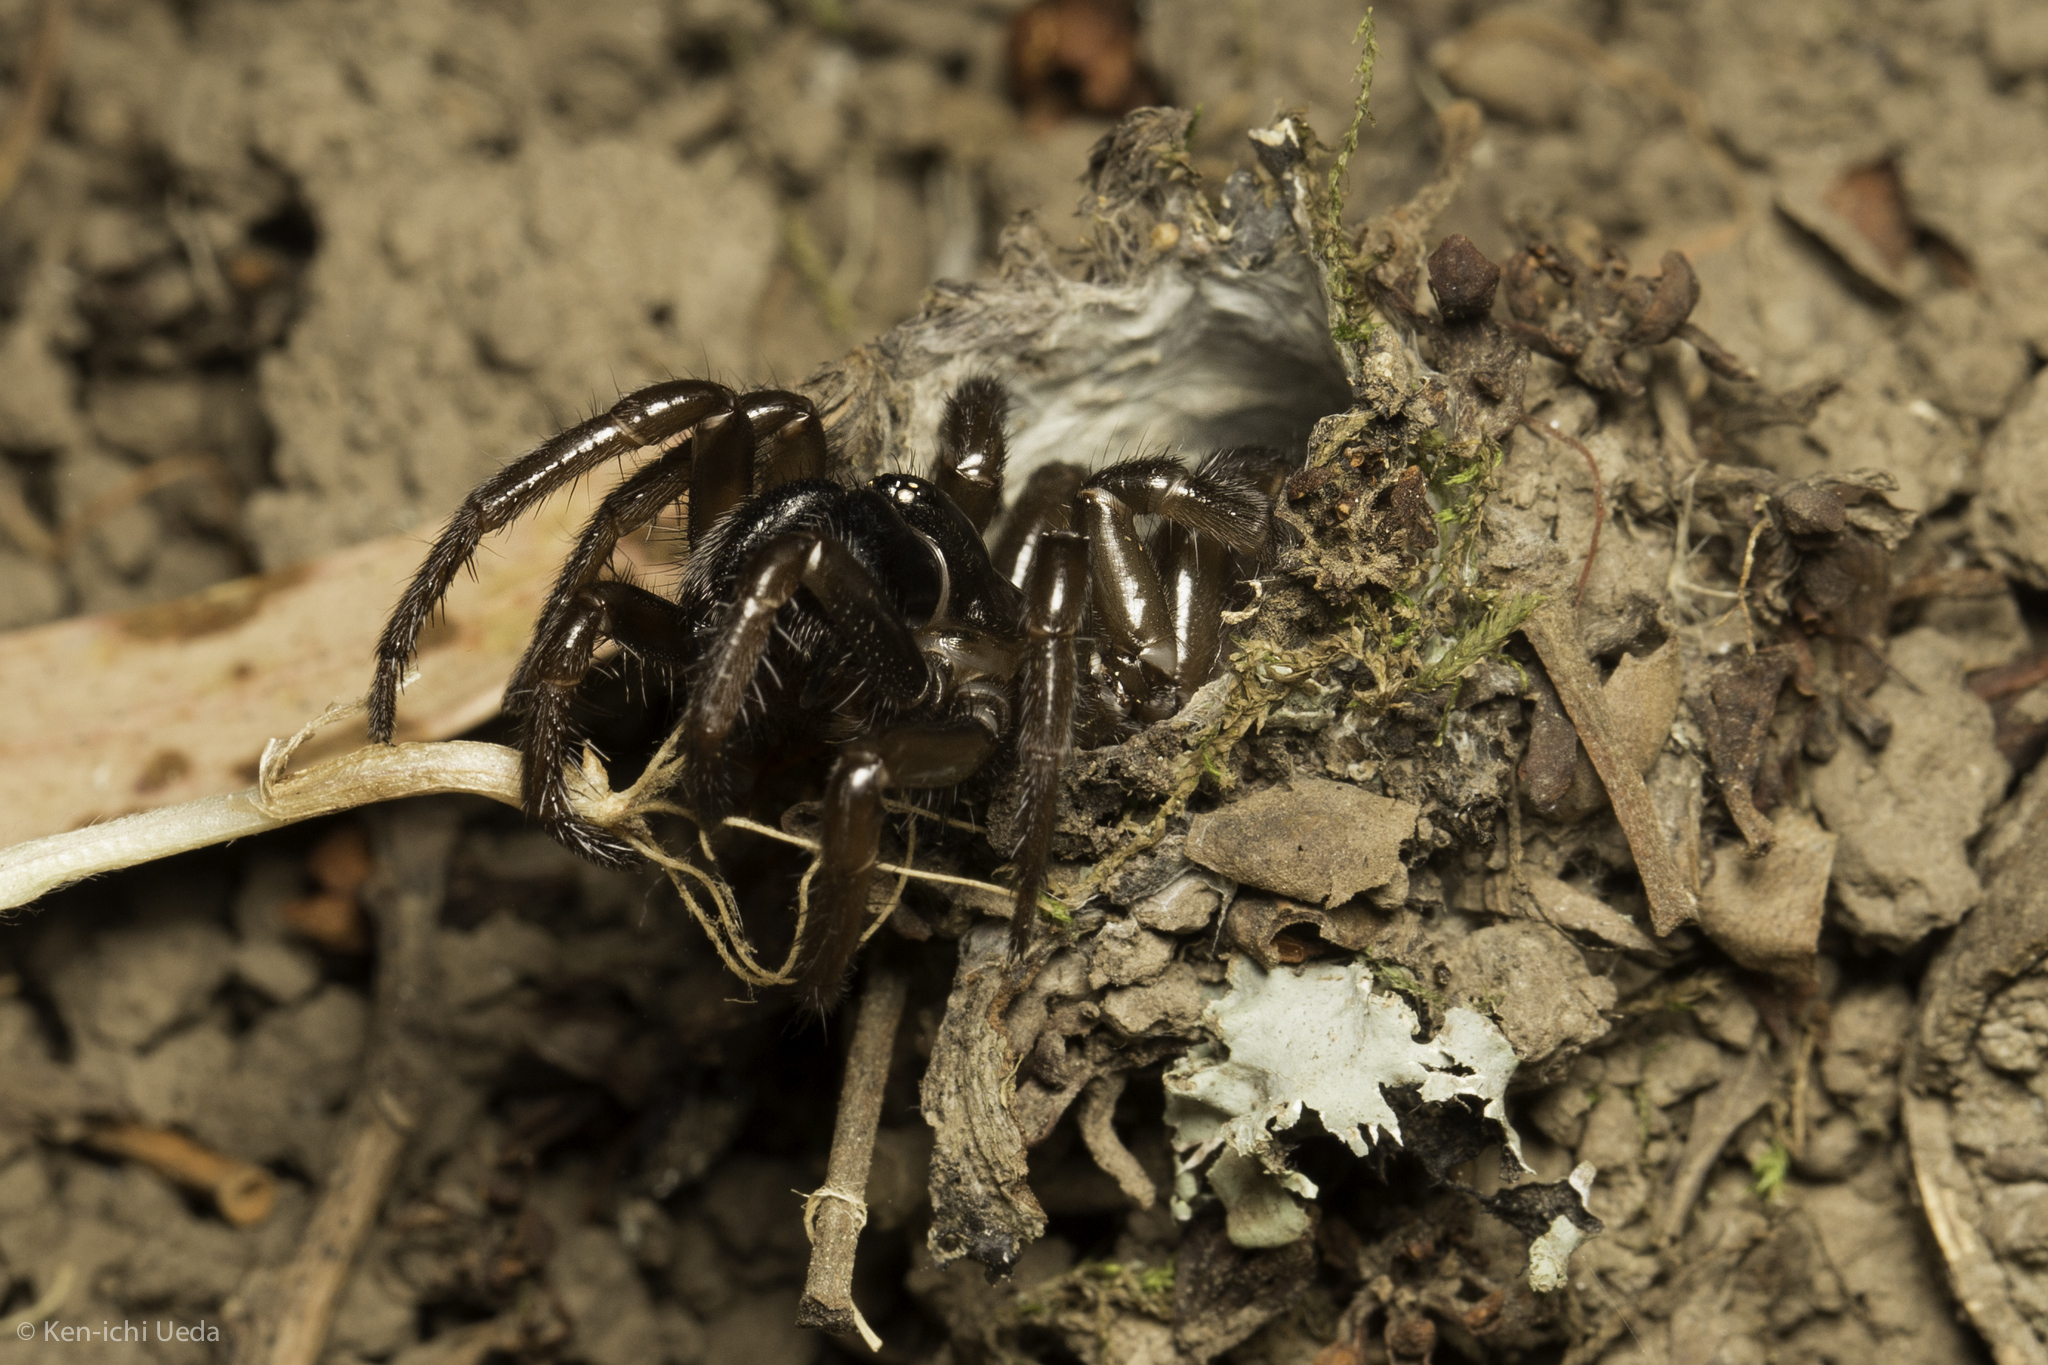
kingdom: Animalia
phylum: Arthropoda
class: Arachnida
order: Araneae
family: Antrodiaetidae
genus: Atypoides
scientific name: Atypoides riversi
